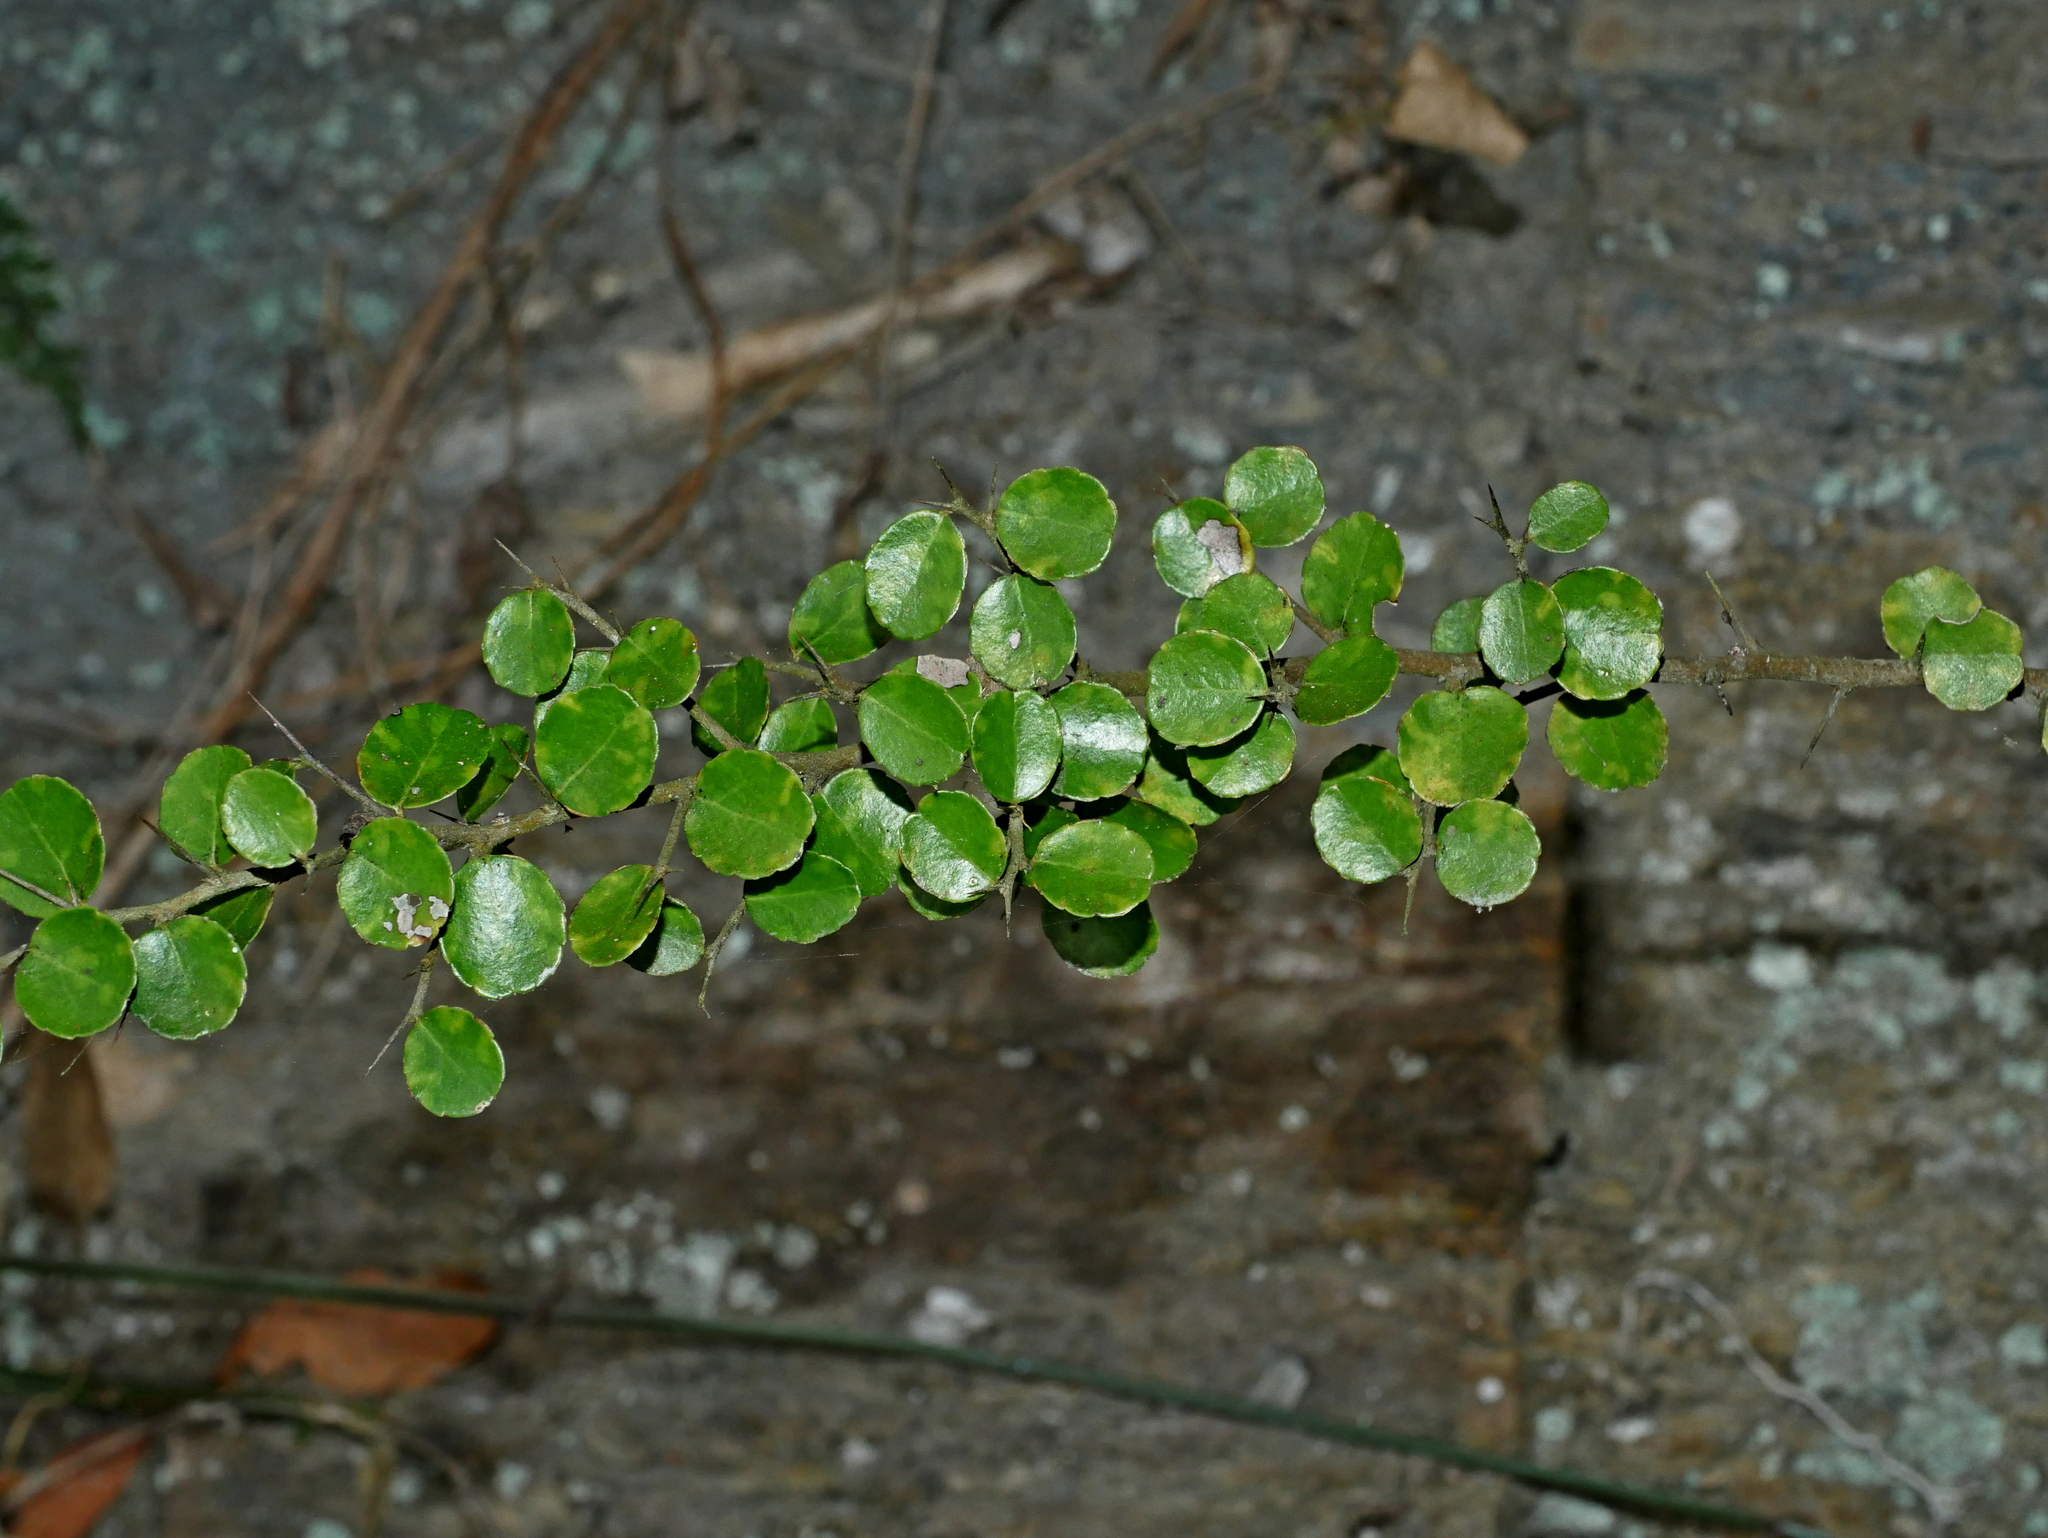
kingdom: Plantae
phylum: Tracheophyta
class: Magnoliopsida
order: Celastrales
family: Celastraceae
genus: Gymnosporia
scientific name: Gymnosporia diversifolia
